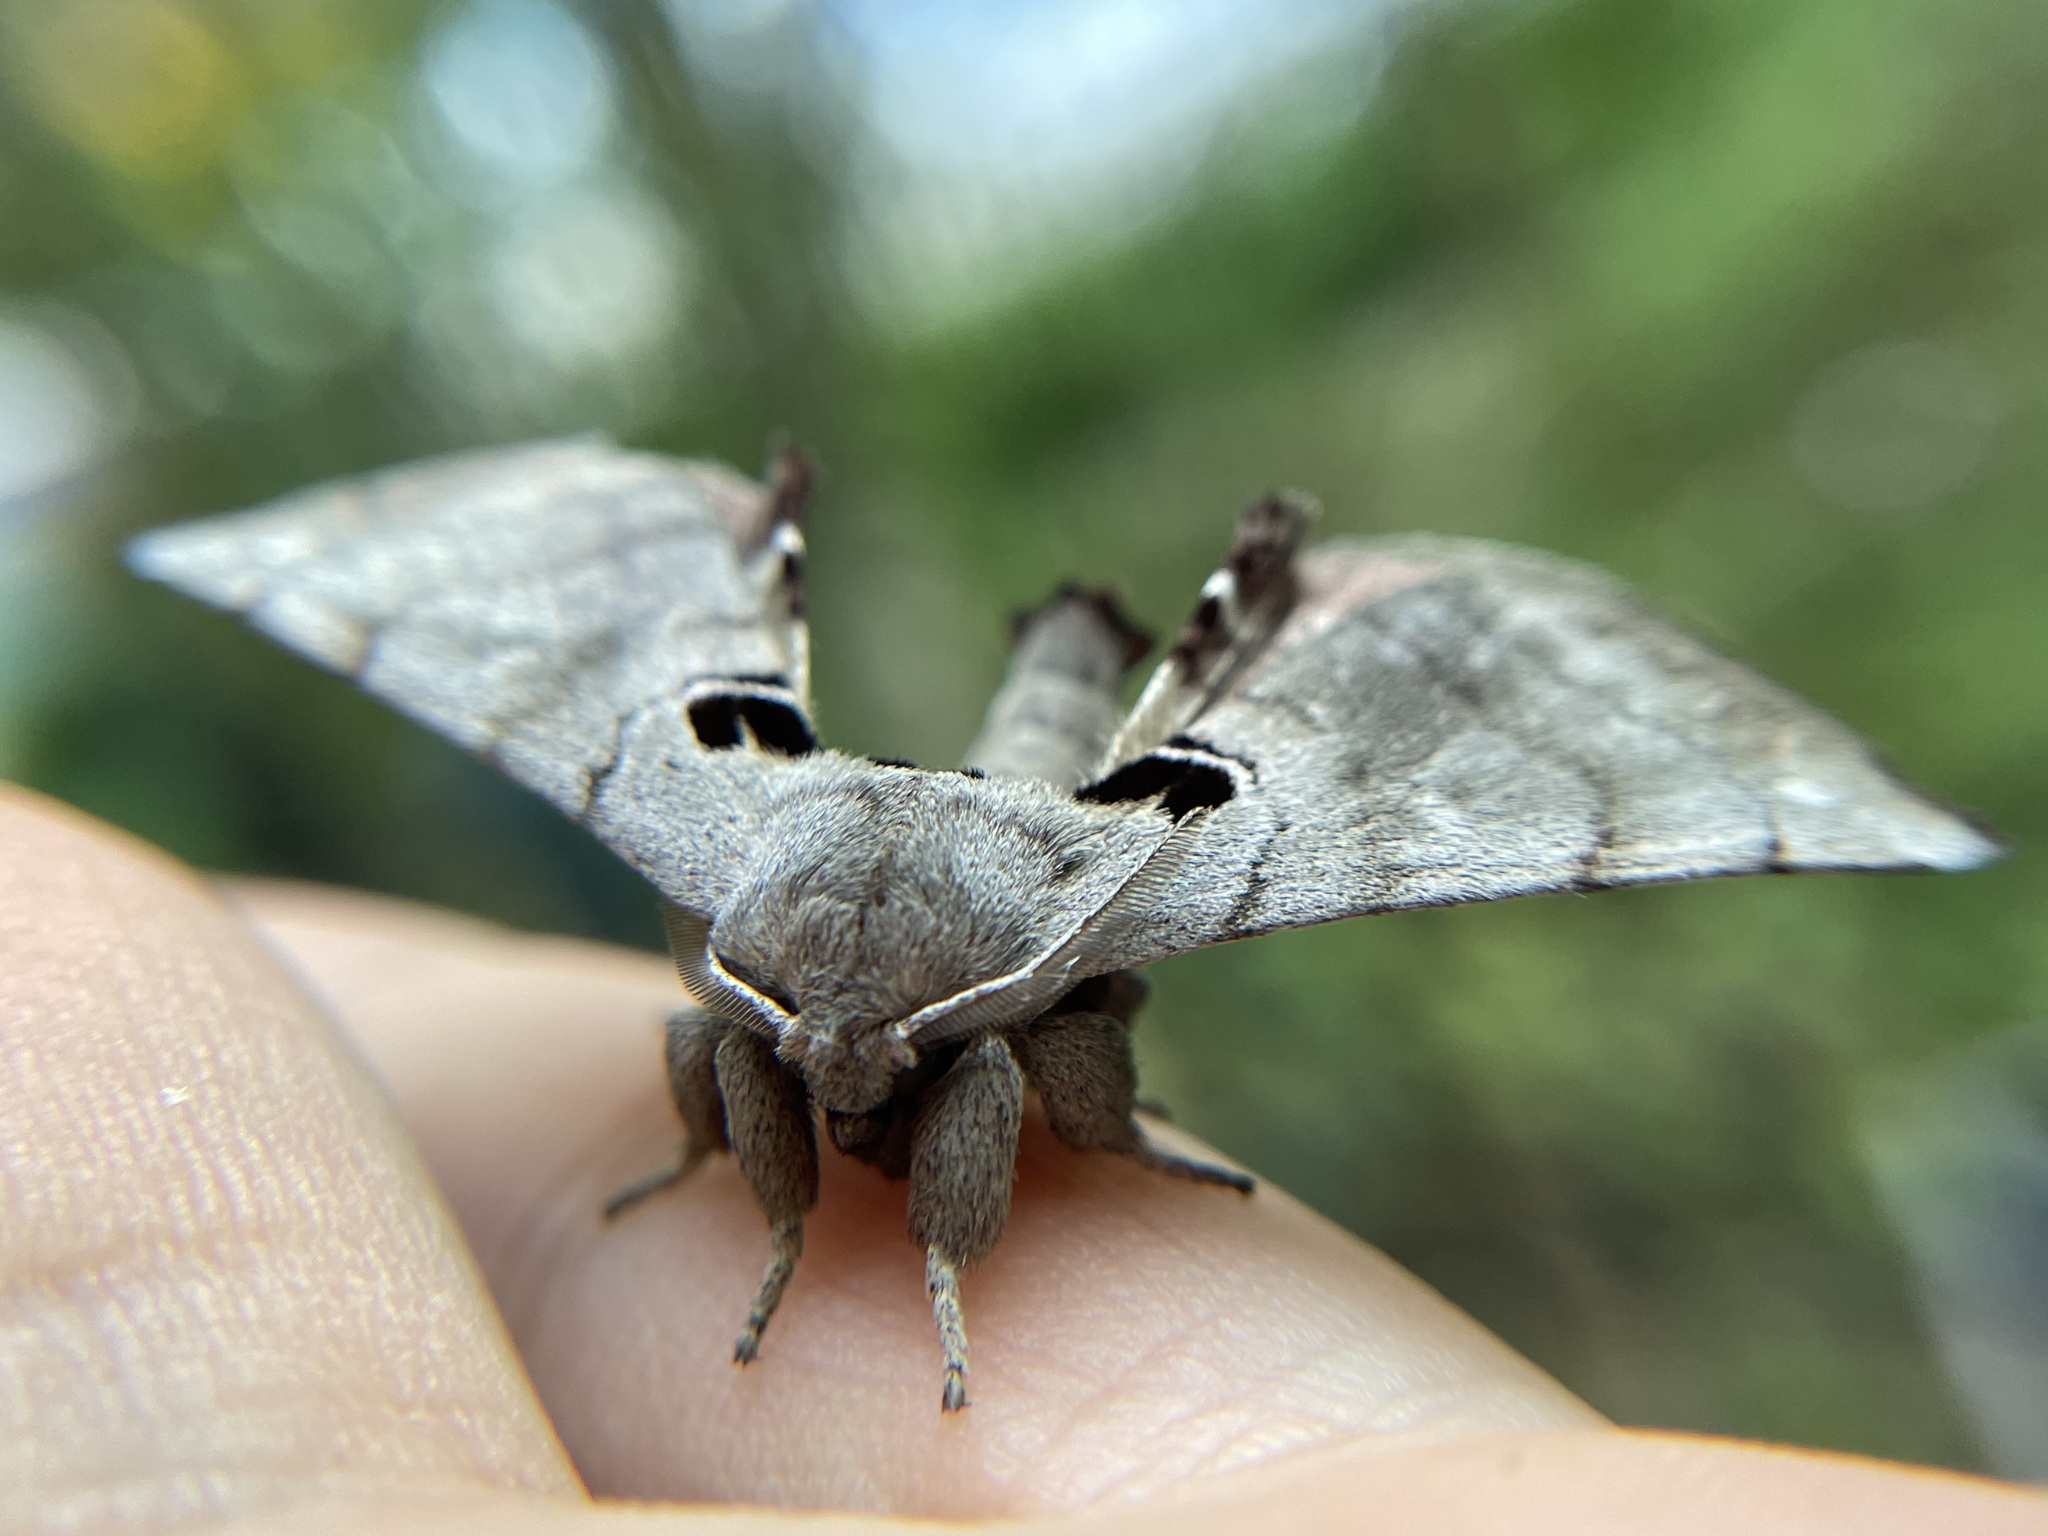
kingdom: Animalia
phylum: Arthropoda
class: Insecta
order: Lepidoptera
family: Apatelodidae
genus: Hygrochroa
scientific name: Hygrochroa Apatelodes torrefacta
